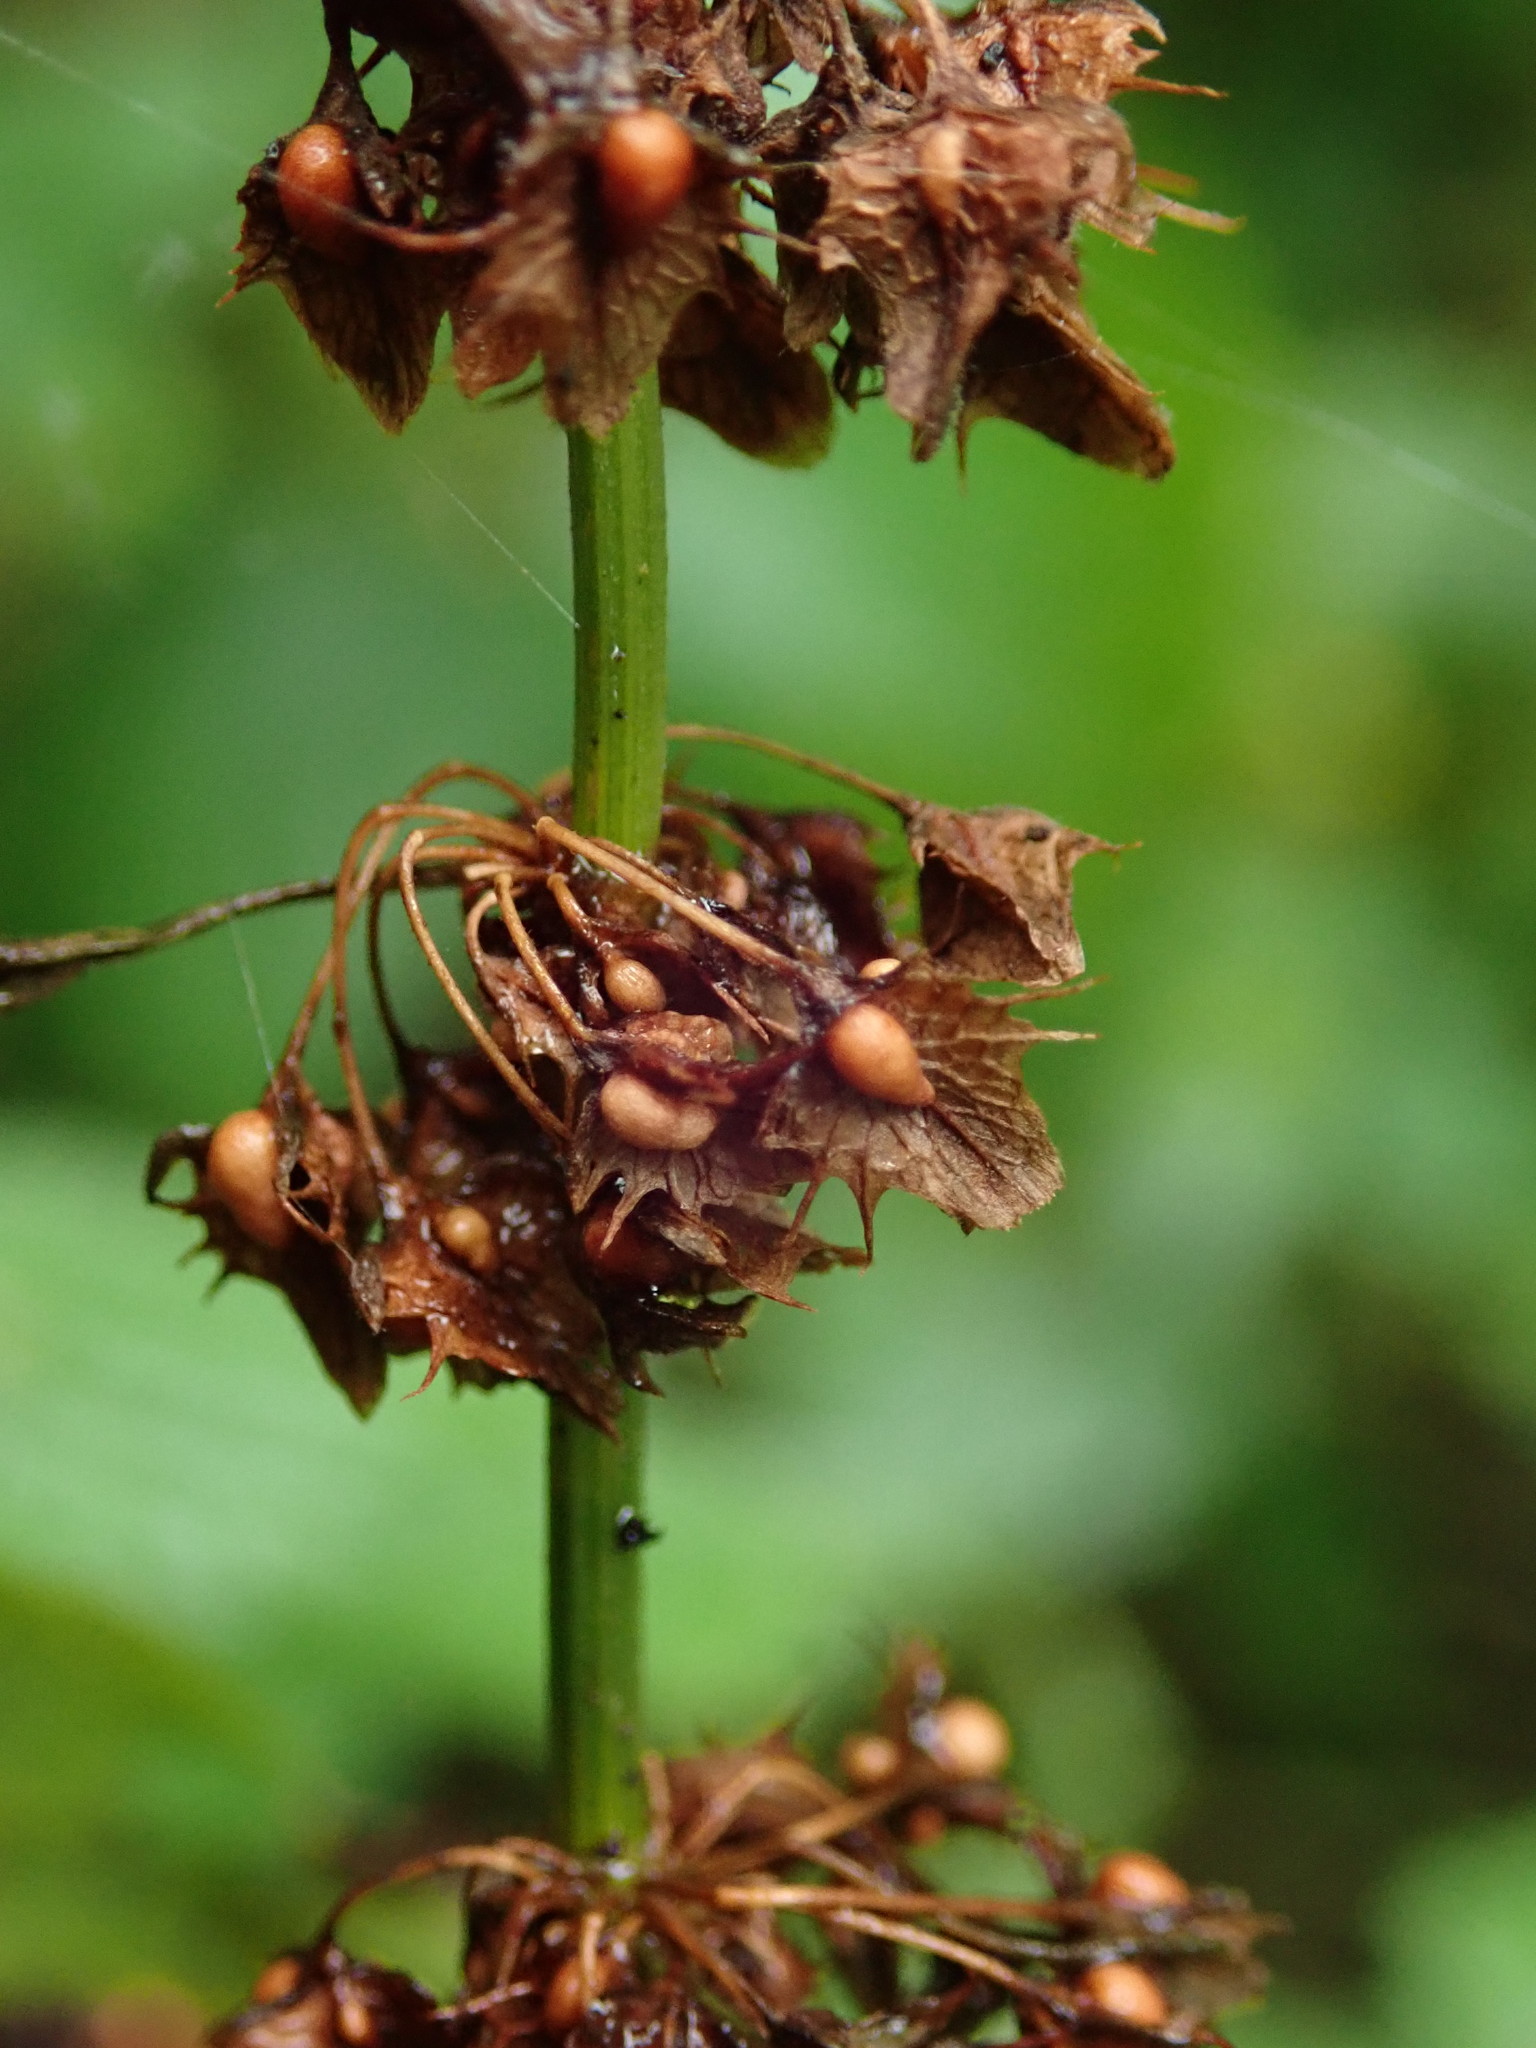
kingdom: Plantae
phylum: Tracheophyta
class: Magnoliopsida
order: Caryophyllales
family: Polygonaceae
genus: Rumex
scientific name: Rumex obtusifolius
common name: Bitter dock
